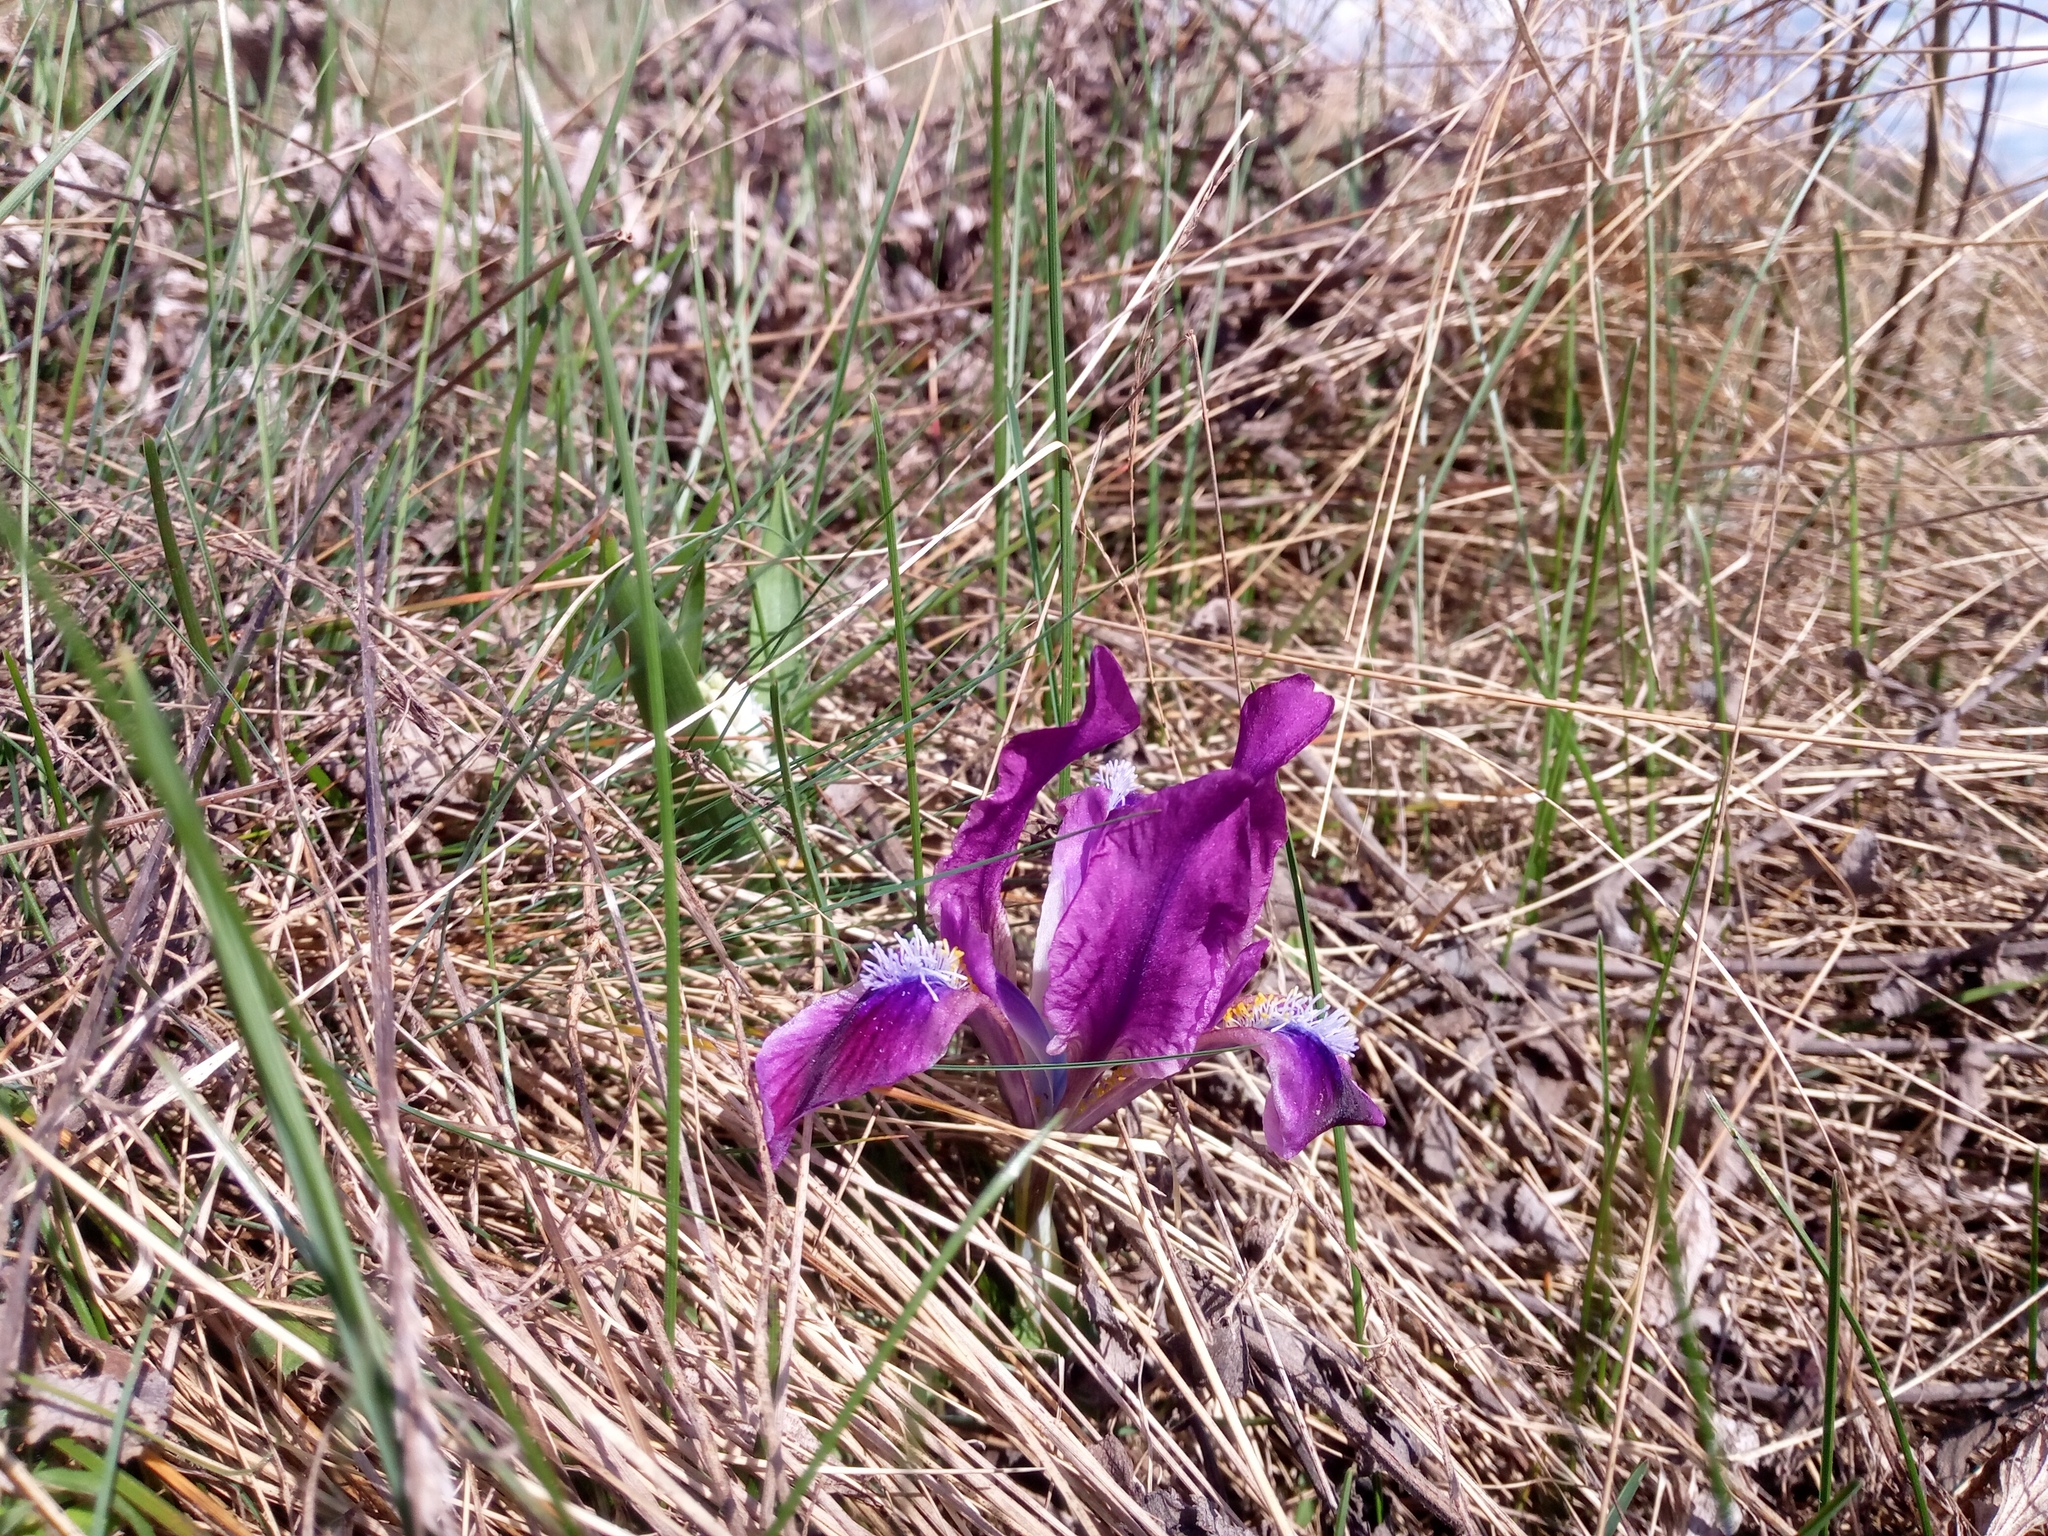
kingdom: Plantae
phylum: Tracheophyta
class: Liliopsida
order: Asparagales
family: Iridaceae
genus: Iris
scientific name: Iris pumila
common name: Dwarf iris
